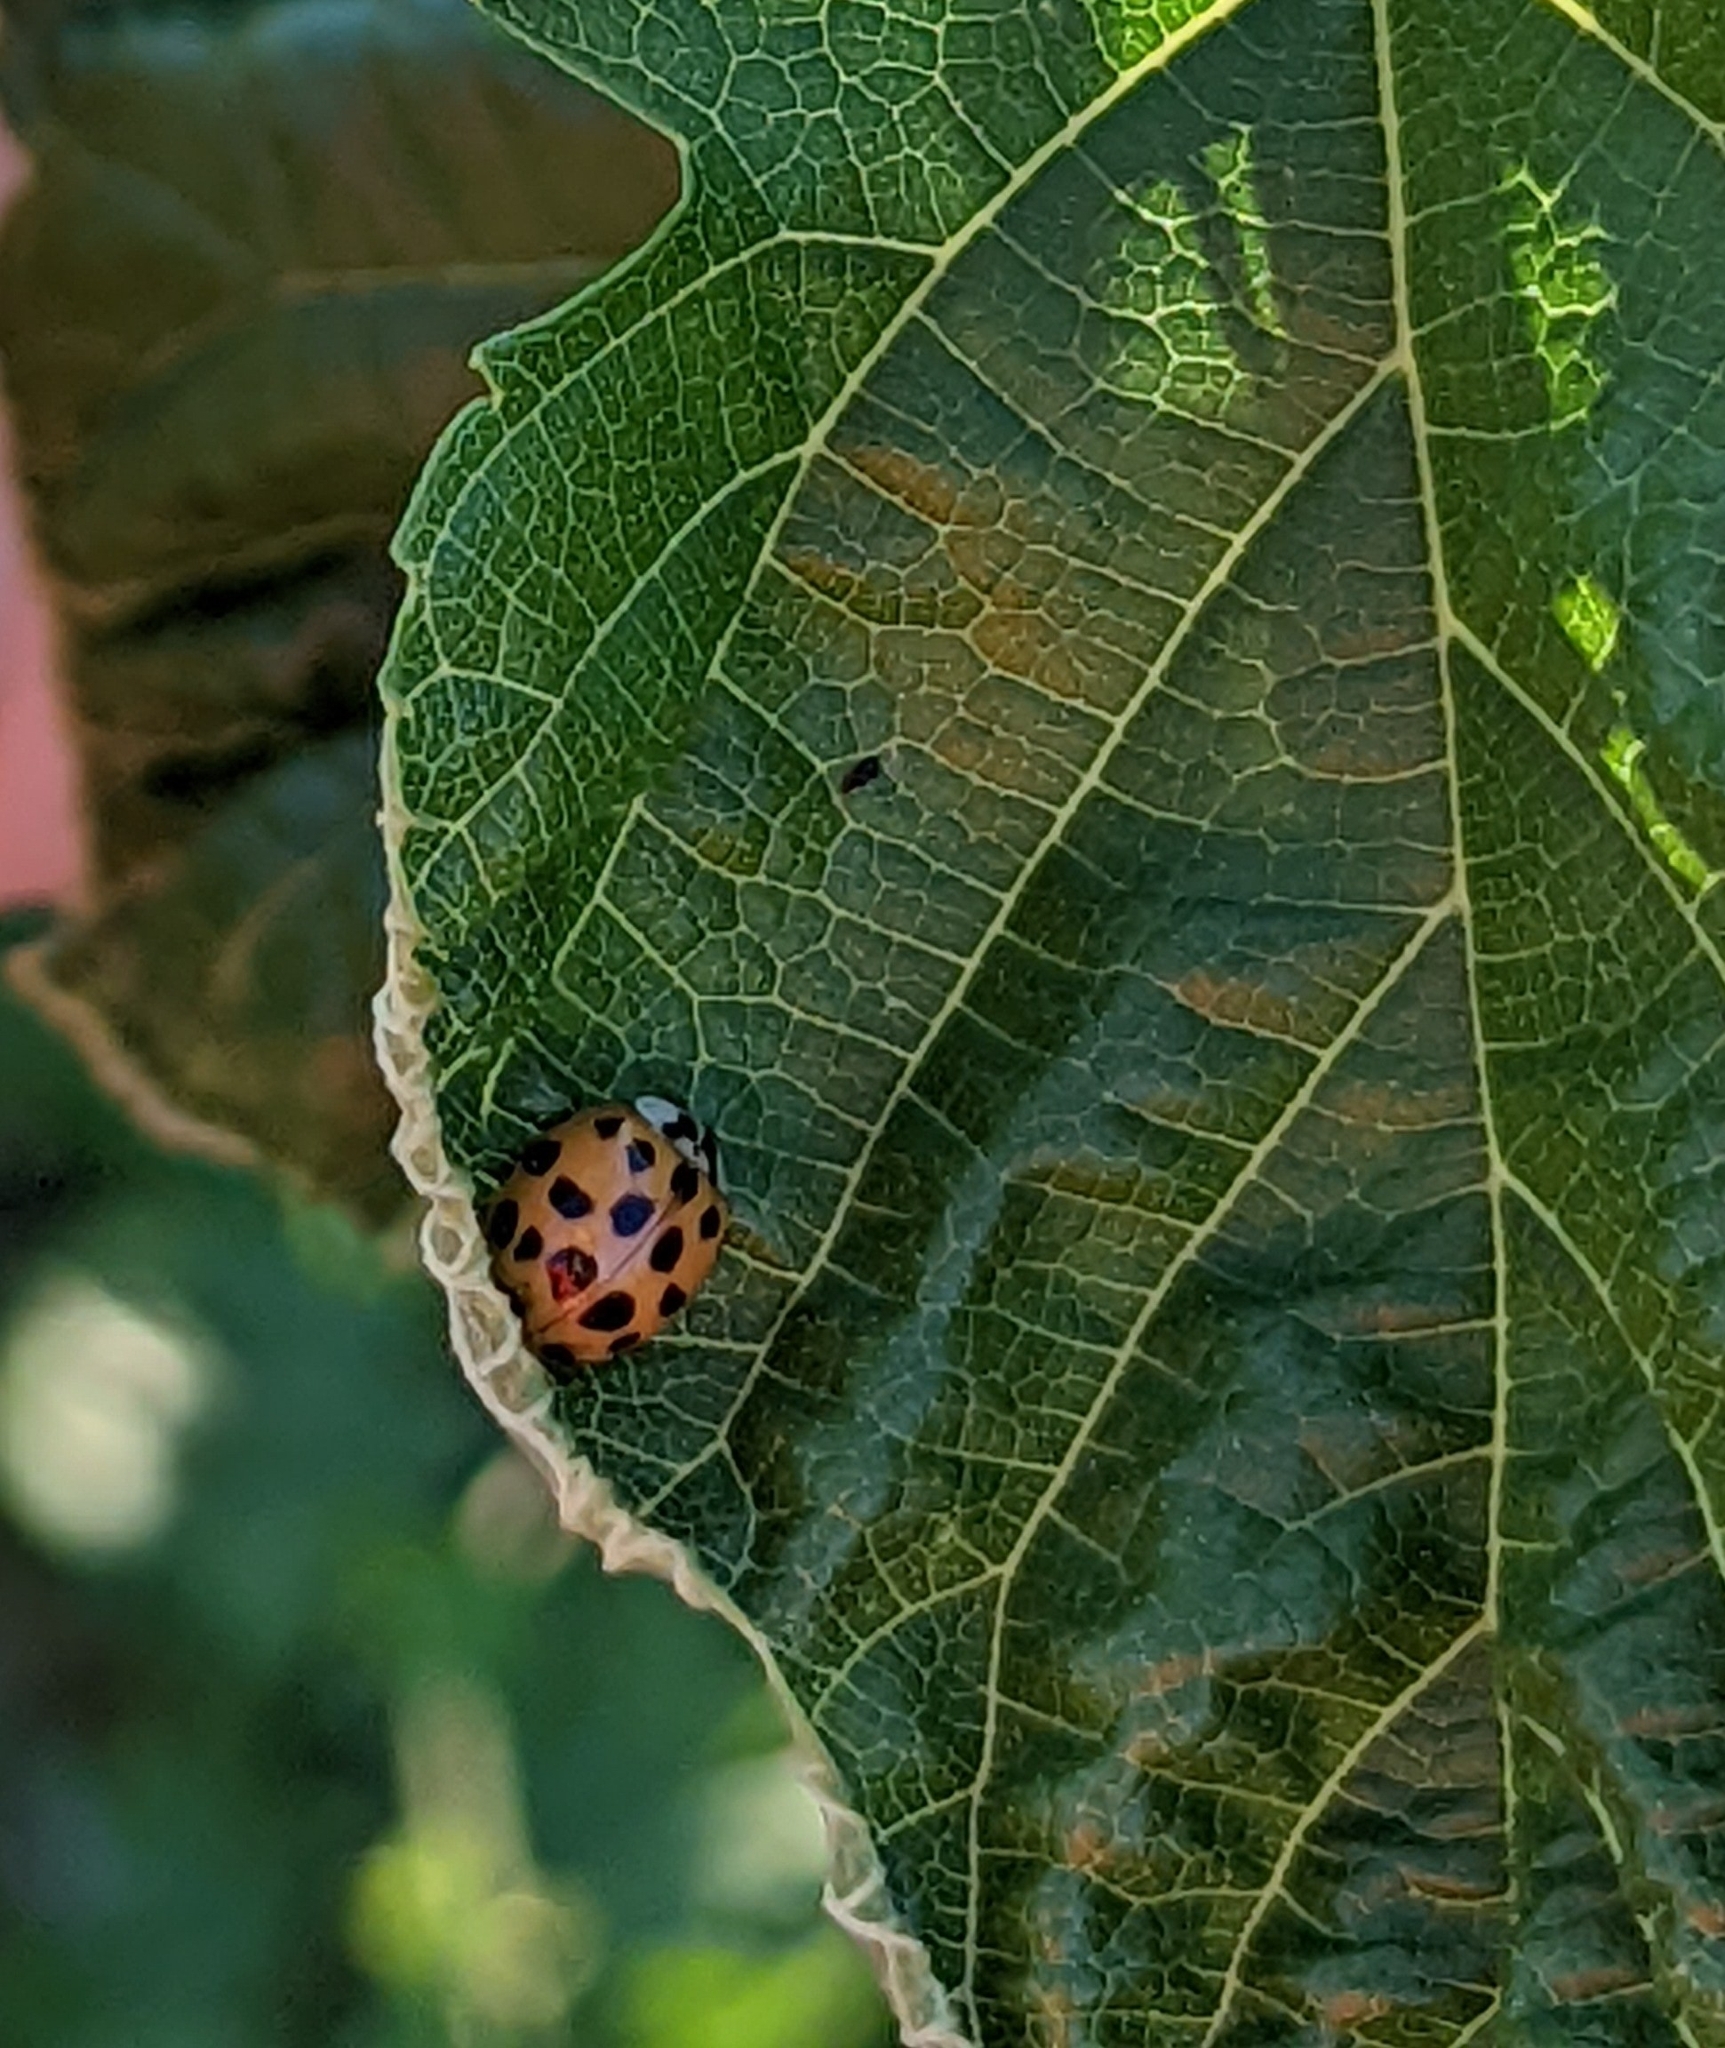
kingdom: Animalia
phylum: Arthropoda
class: Insecta
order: Coleoptera
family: Coccinellidae
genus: Harmonia
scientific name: Harmonia axyridis
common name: Harlequin ladybird
